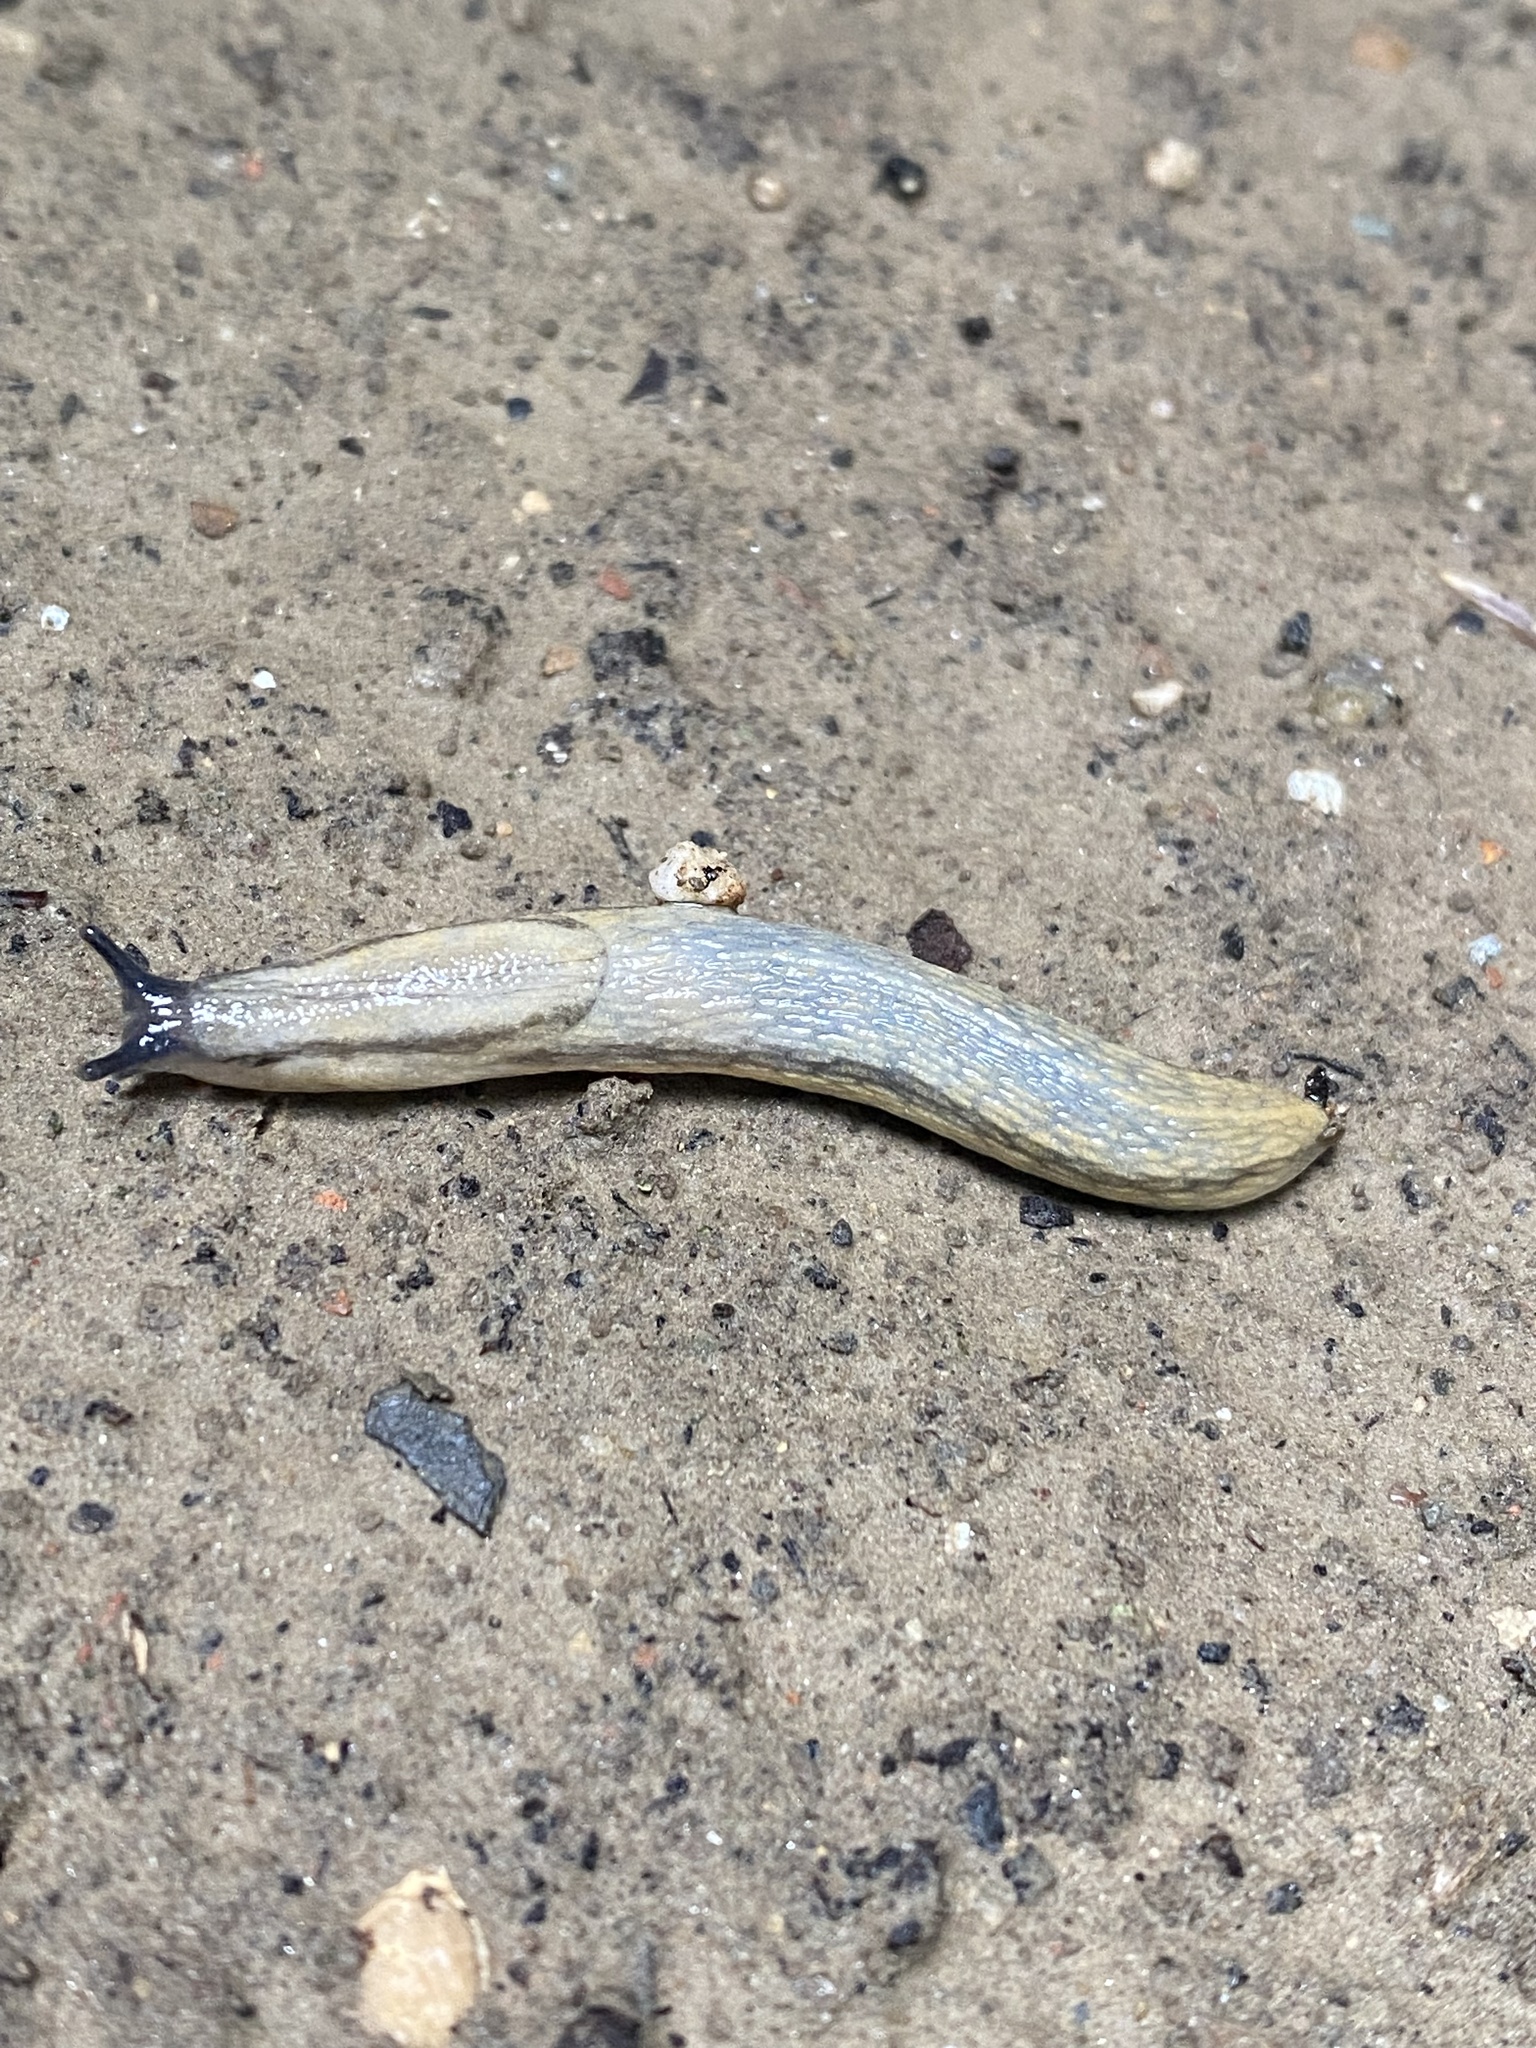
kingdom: Animalia
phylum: Mollusca
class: Gastropoda
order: Stylommatophora
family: Arionidae
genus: Arion
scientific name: Arion fasciatus
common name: Orange-banded arion
